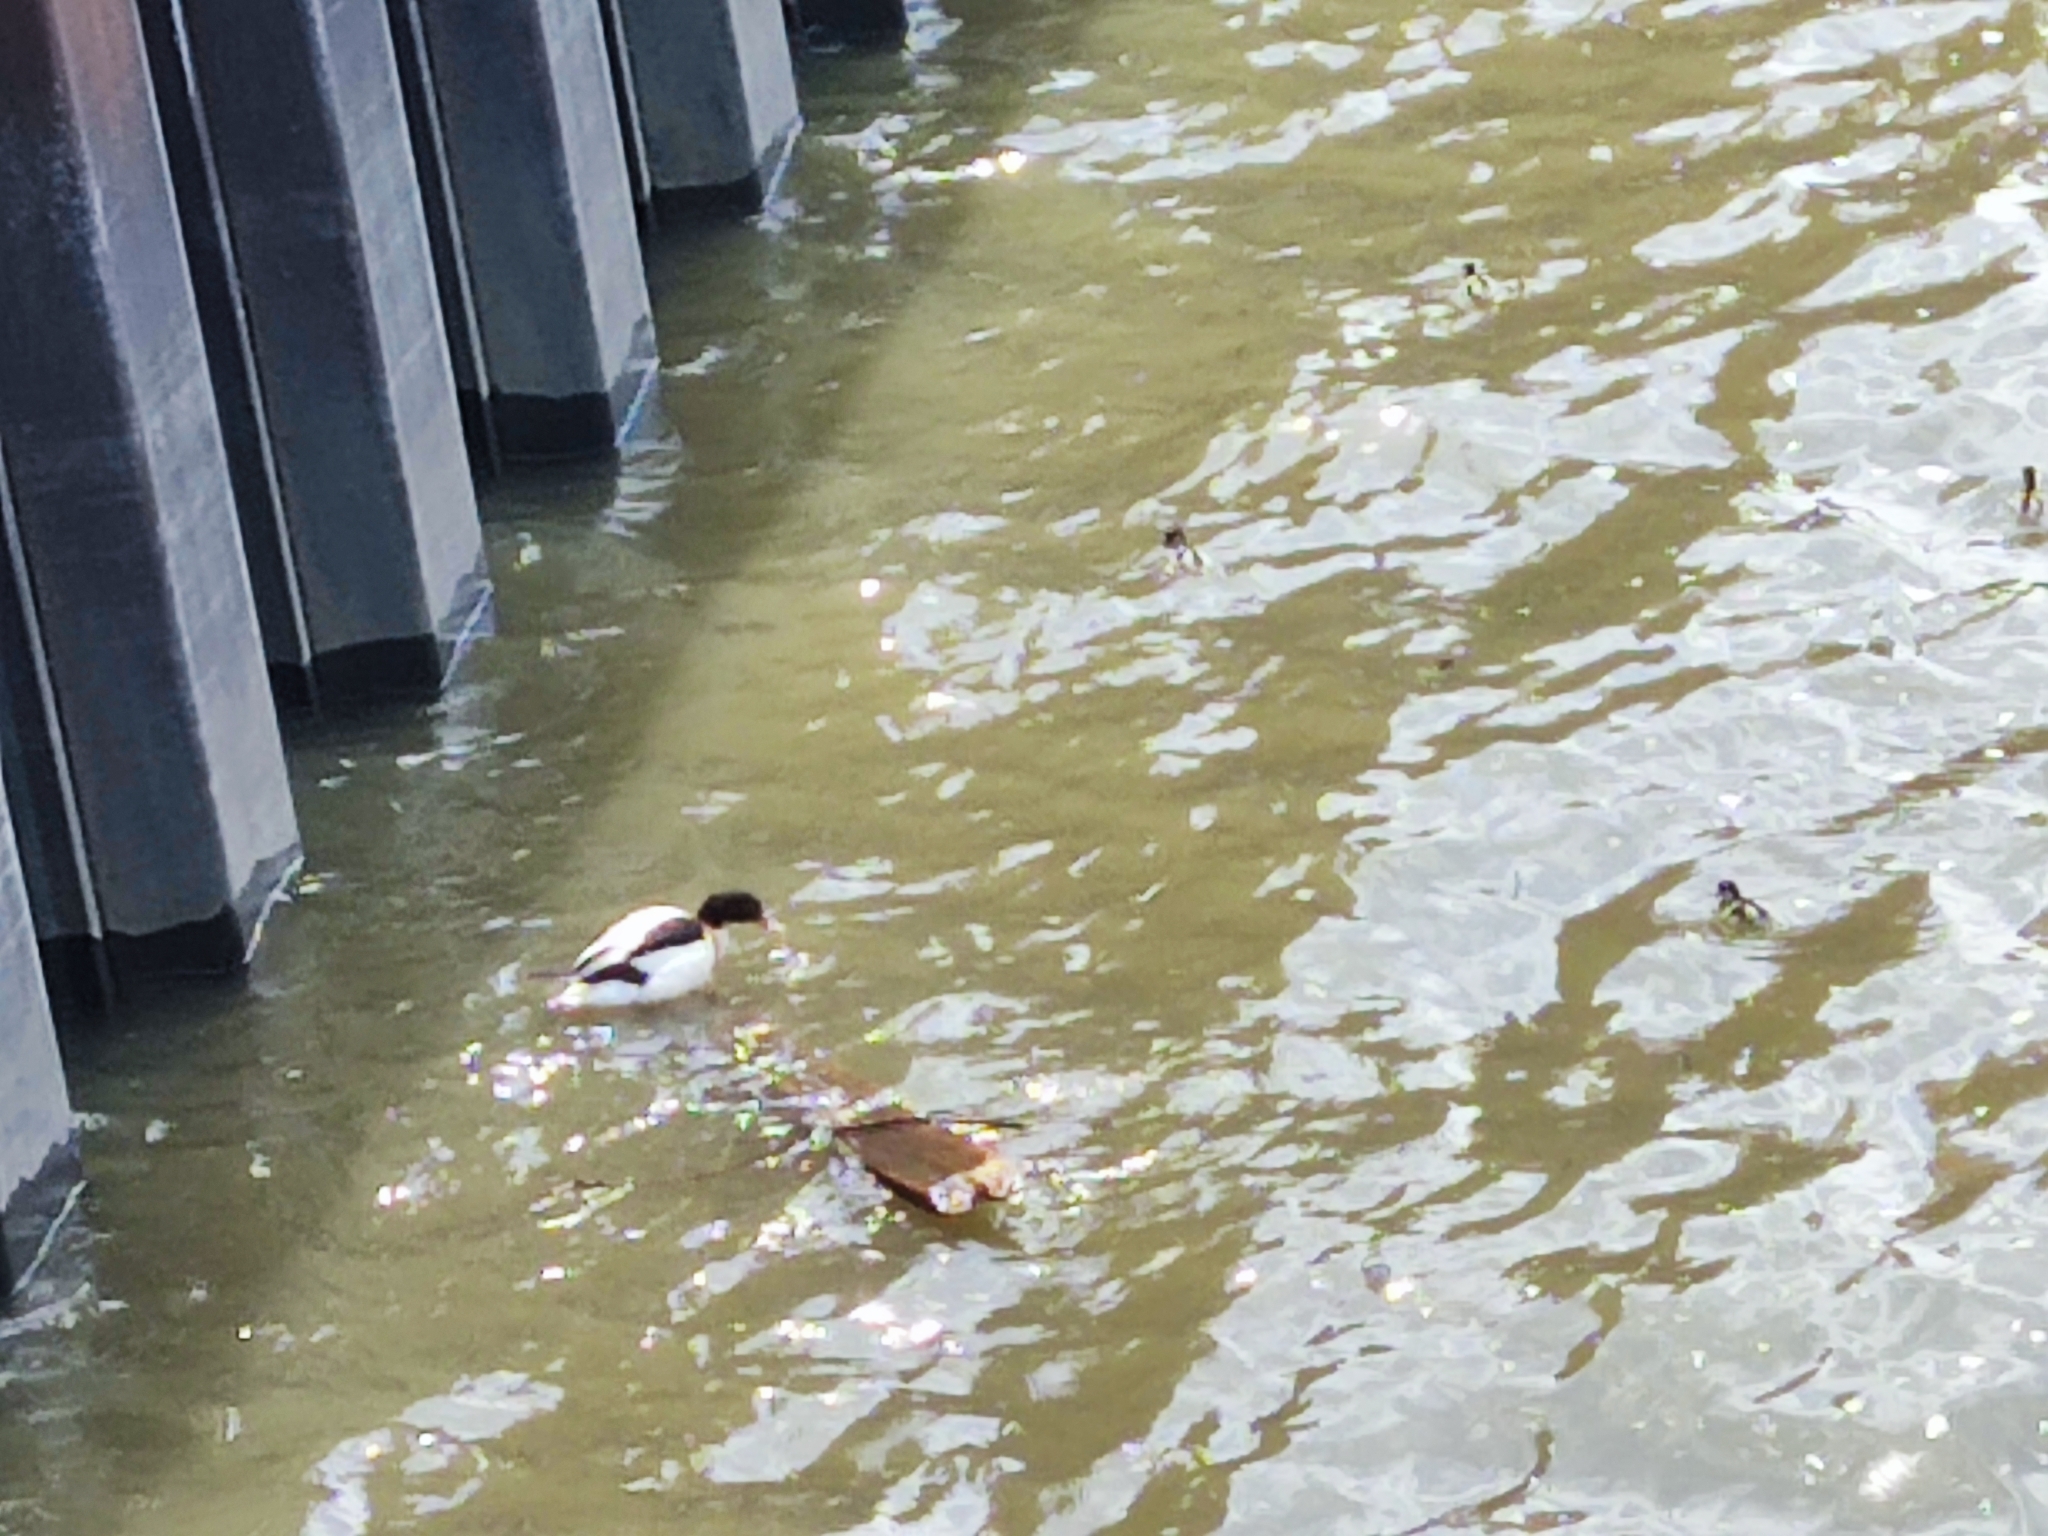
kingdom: Animalia
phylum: Chordata
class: Aves
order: Anseriformes
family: Anatidae
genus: Tadorna
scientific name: Tadorna tadorna
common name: Common shelduck
